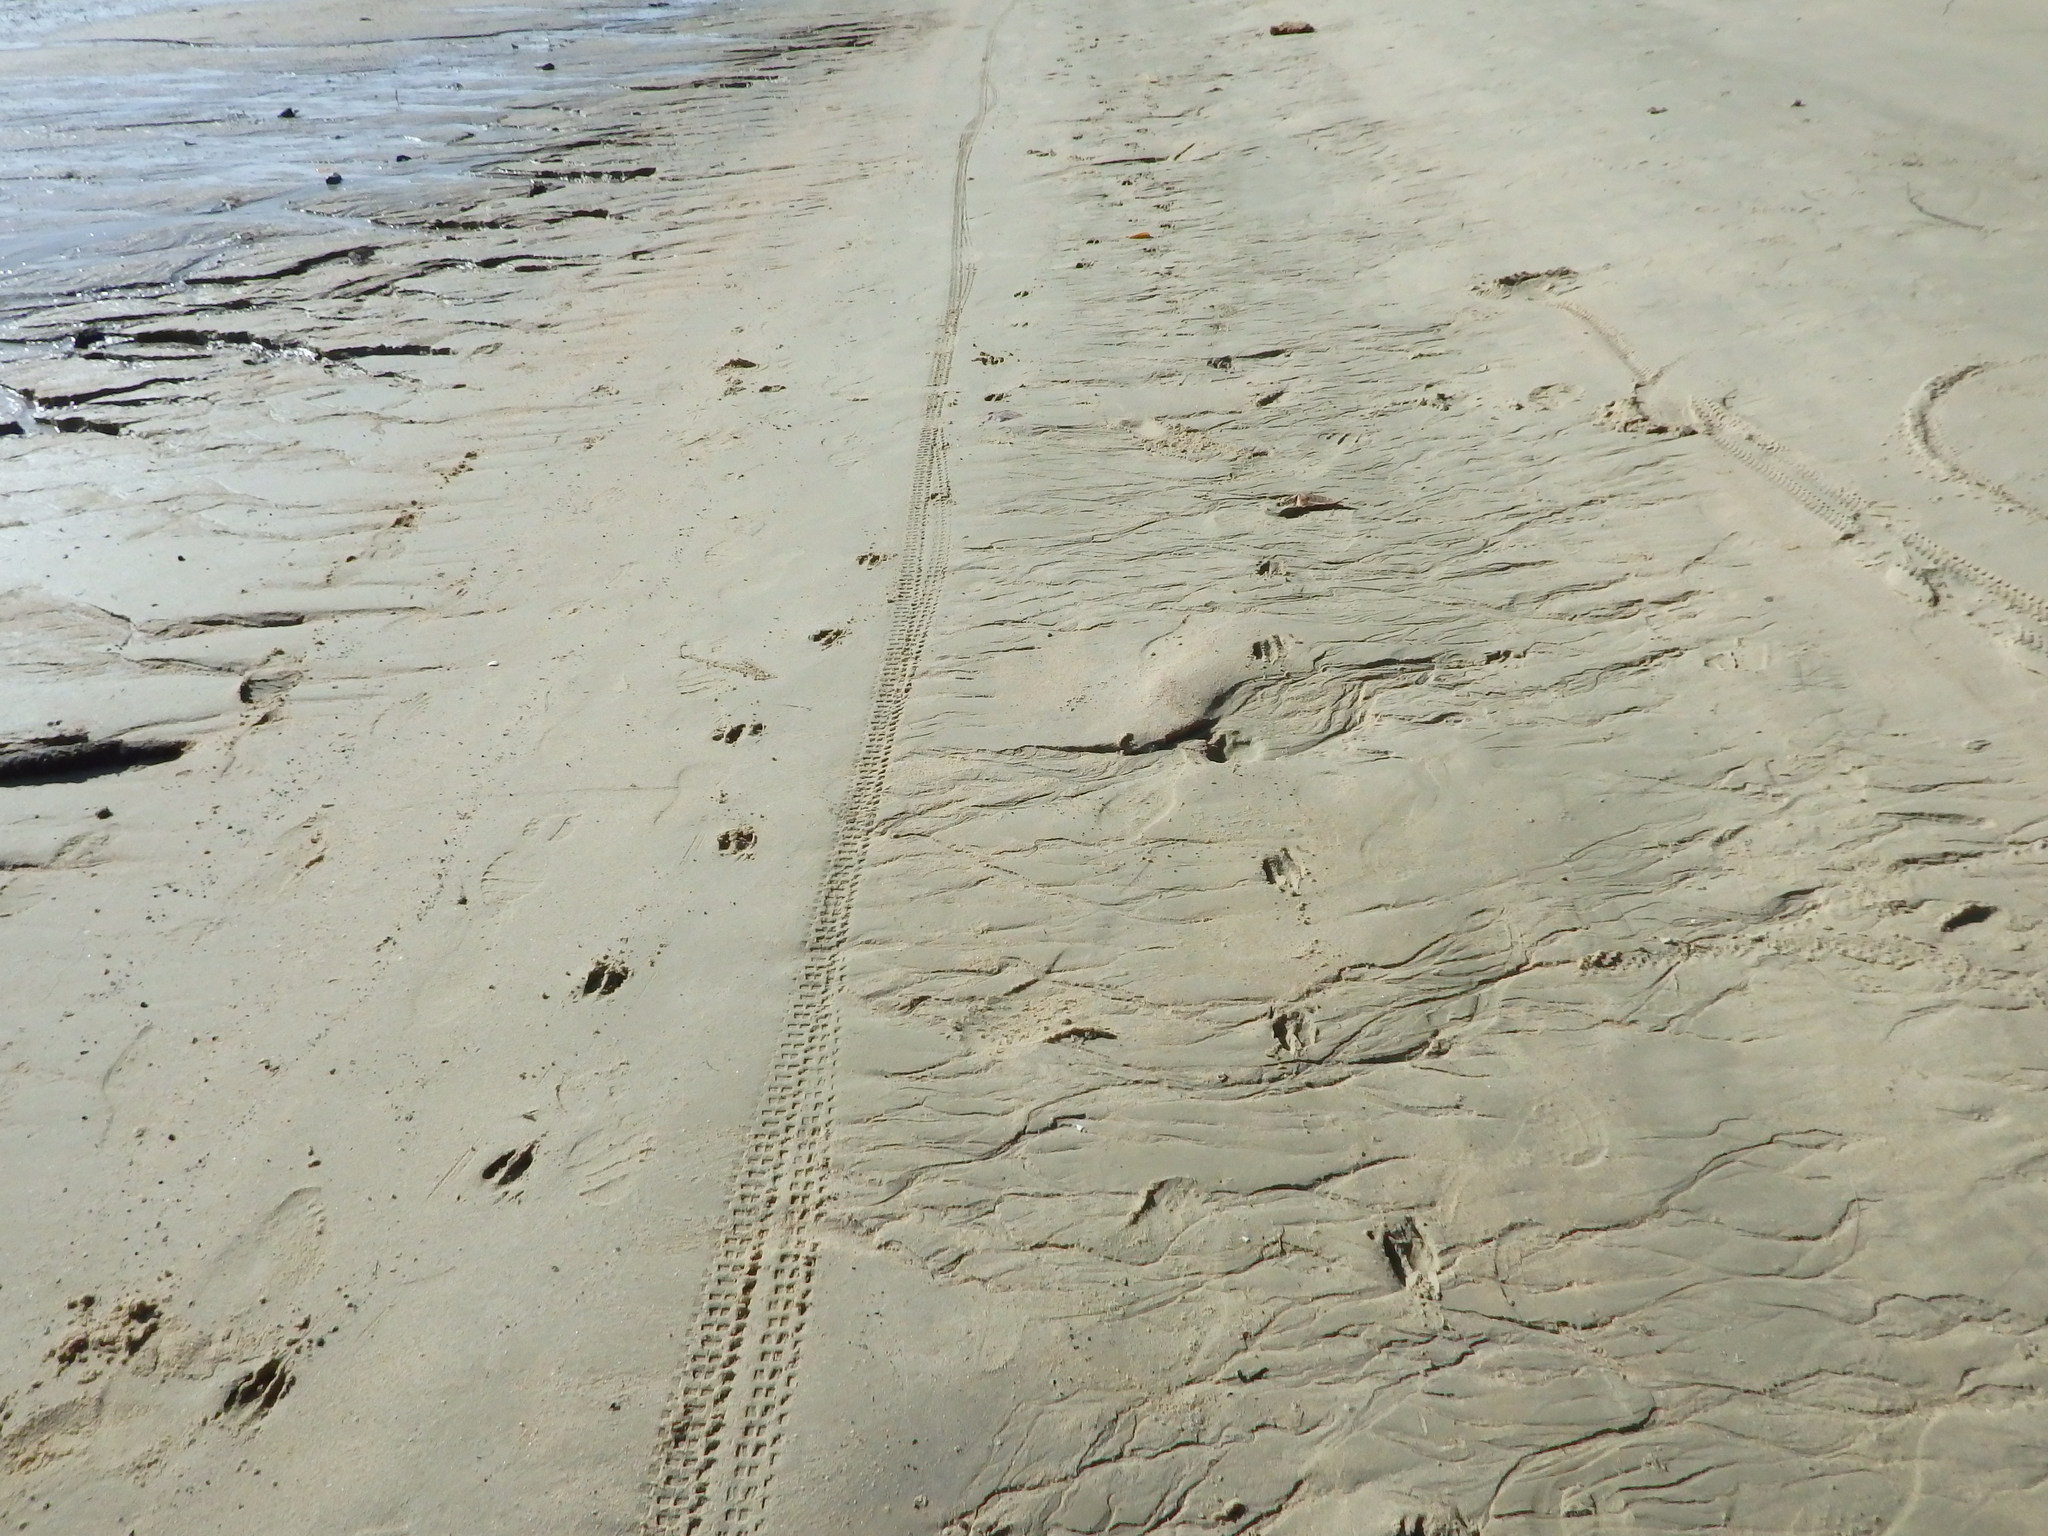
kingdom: Animalia
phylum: Chordata
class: Mammalia
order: Artiodactyla
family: Suidae
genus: Sus
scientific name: Sus scrofa
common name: Wild boar
